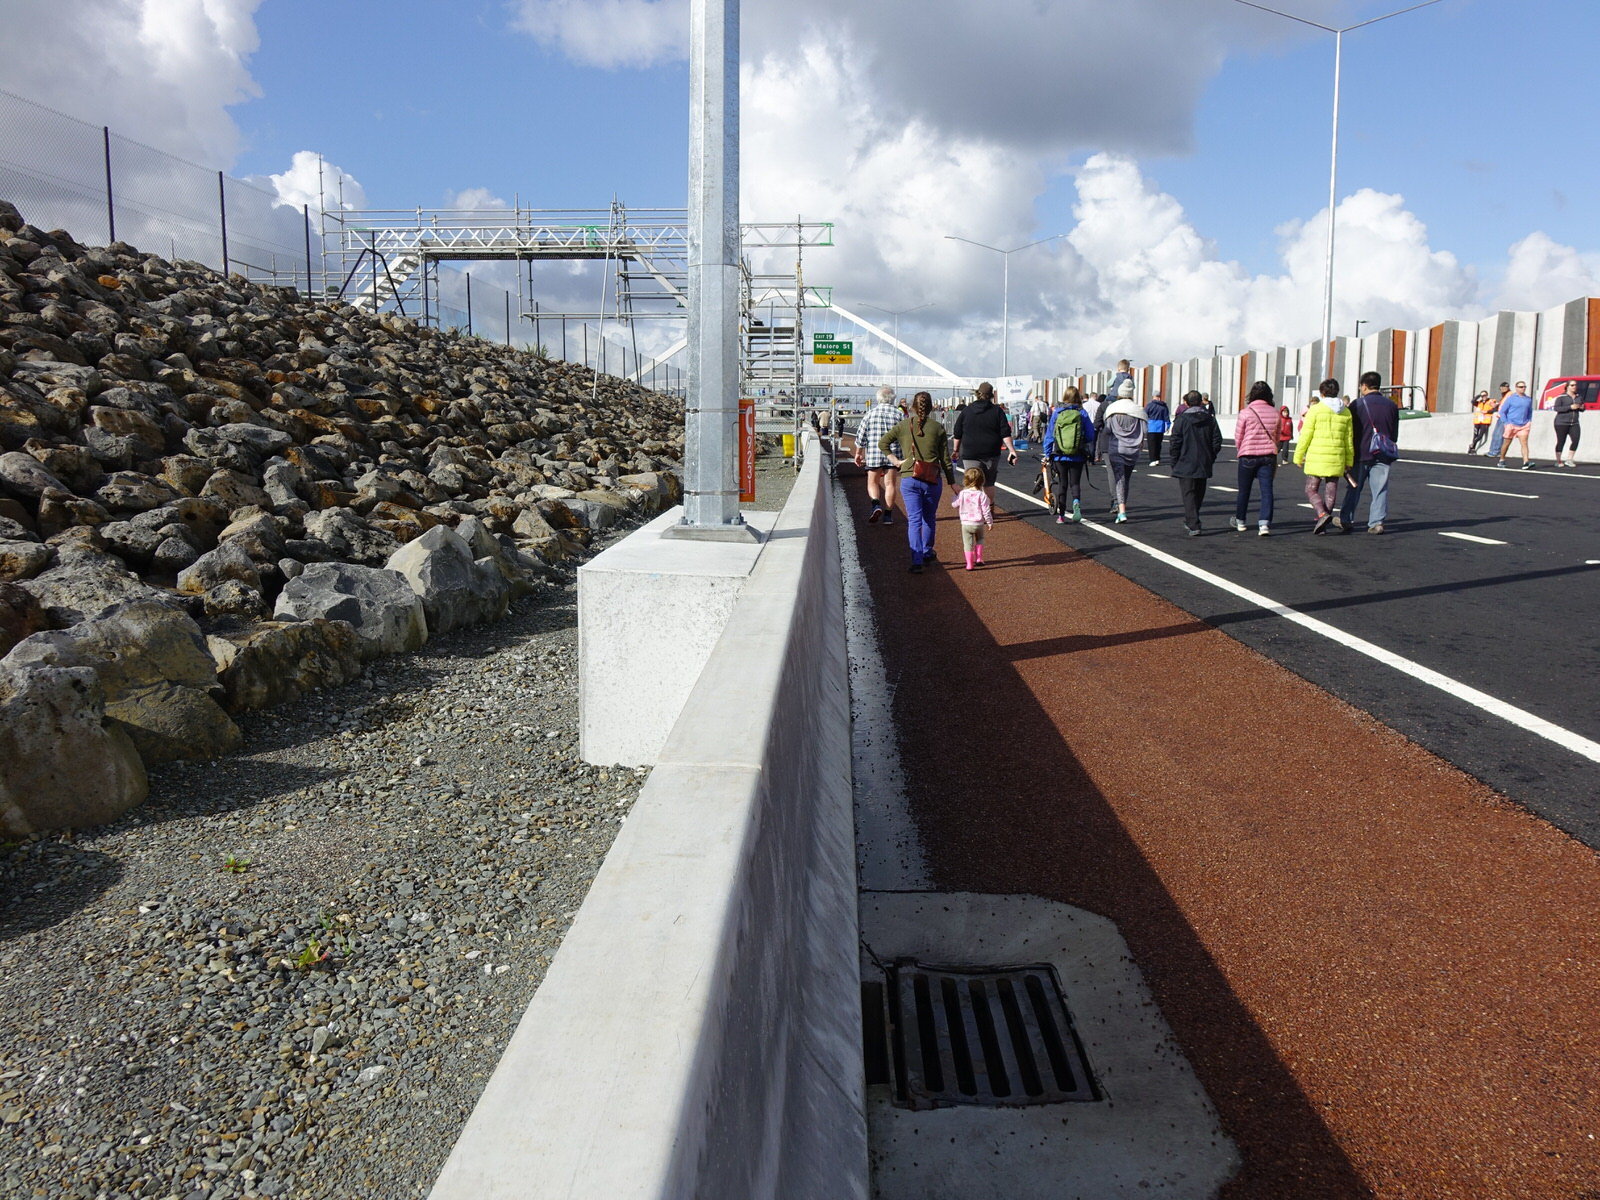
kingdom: Plantae
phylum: Tracheophyta
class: Magnoliopsida
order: Caryophyllales
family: Polygonaceae
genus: Rumex
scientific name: Rumex obtusifolius
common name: Bitter dock
